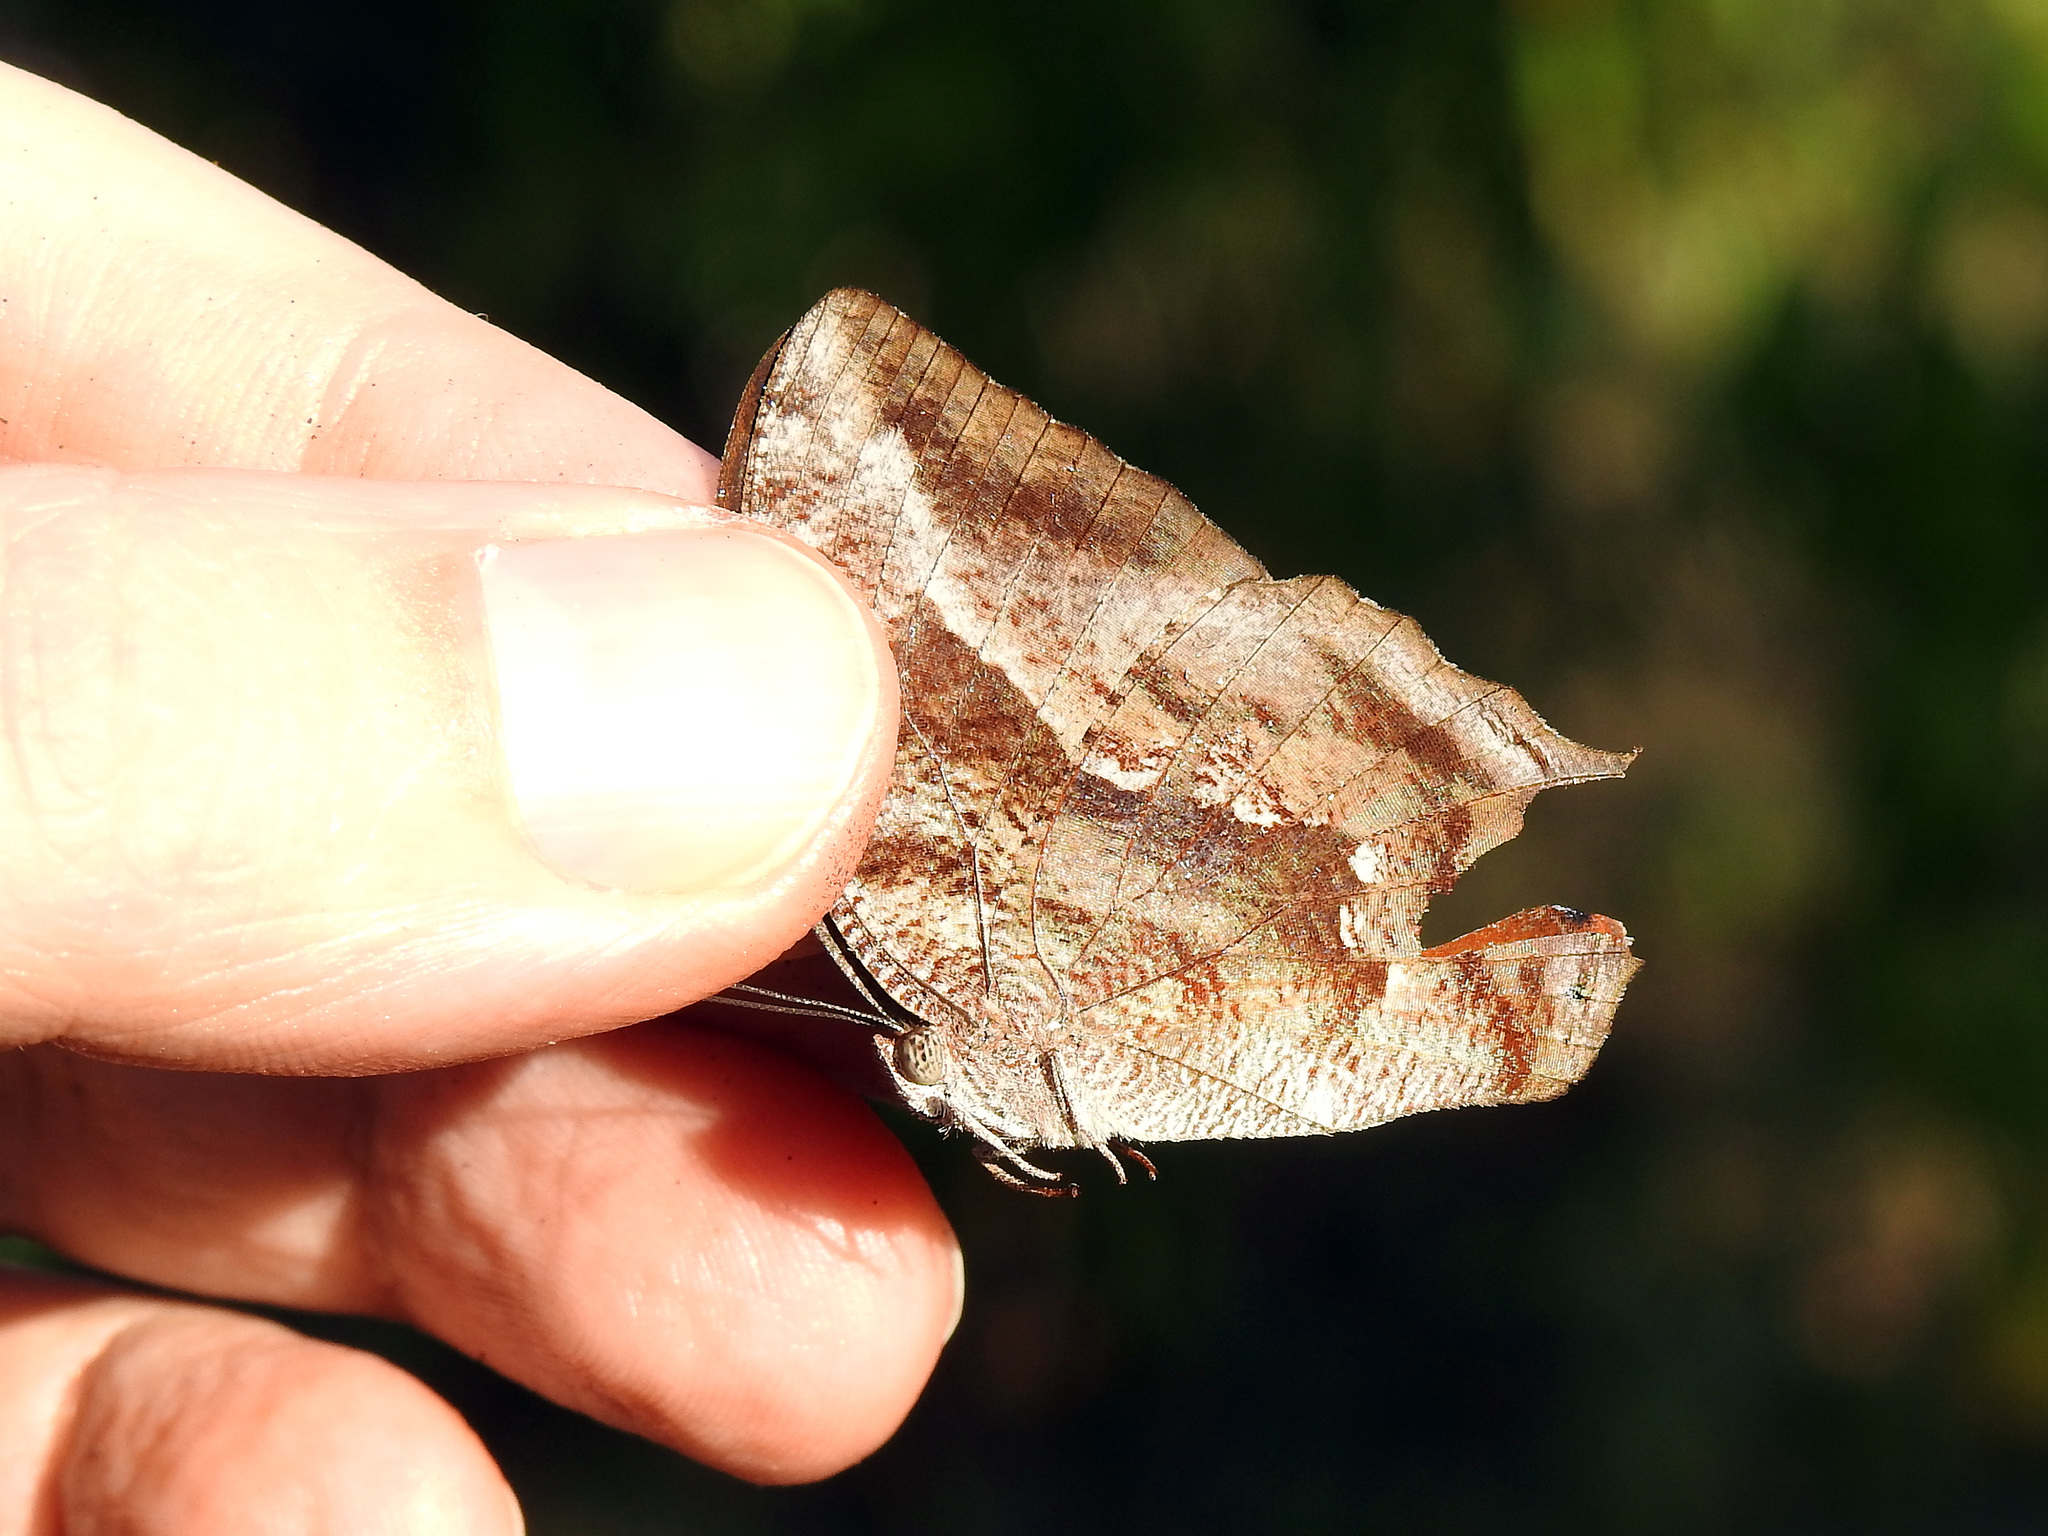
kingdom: Animalia
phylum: Arthropoda
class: Insecta
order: Lepidoptera
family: Nymphalidae
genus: Cymatogramma
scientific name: Cymatogramma echemus
